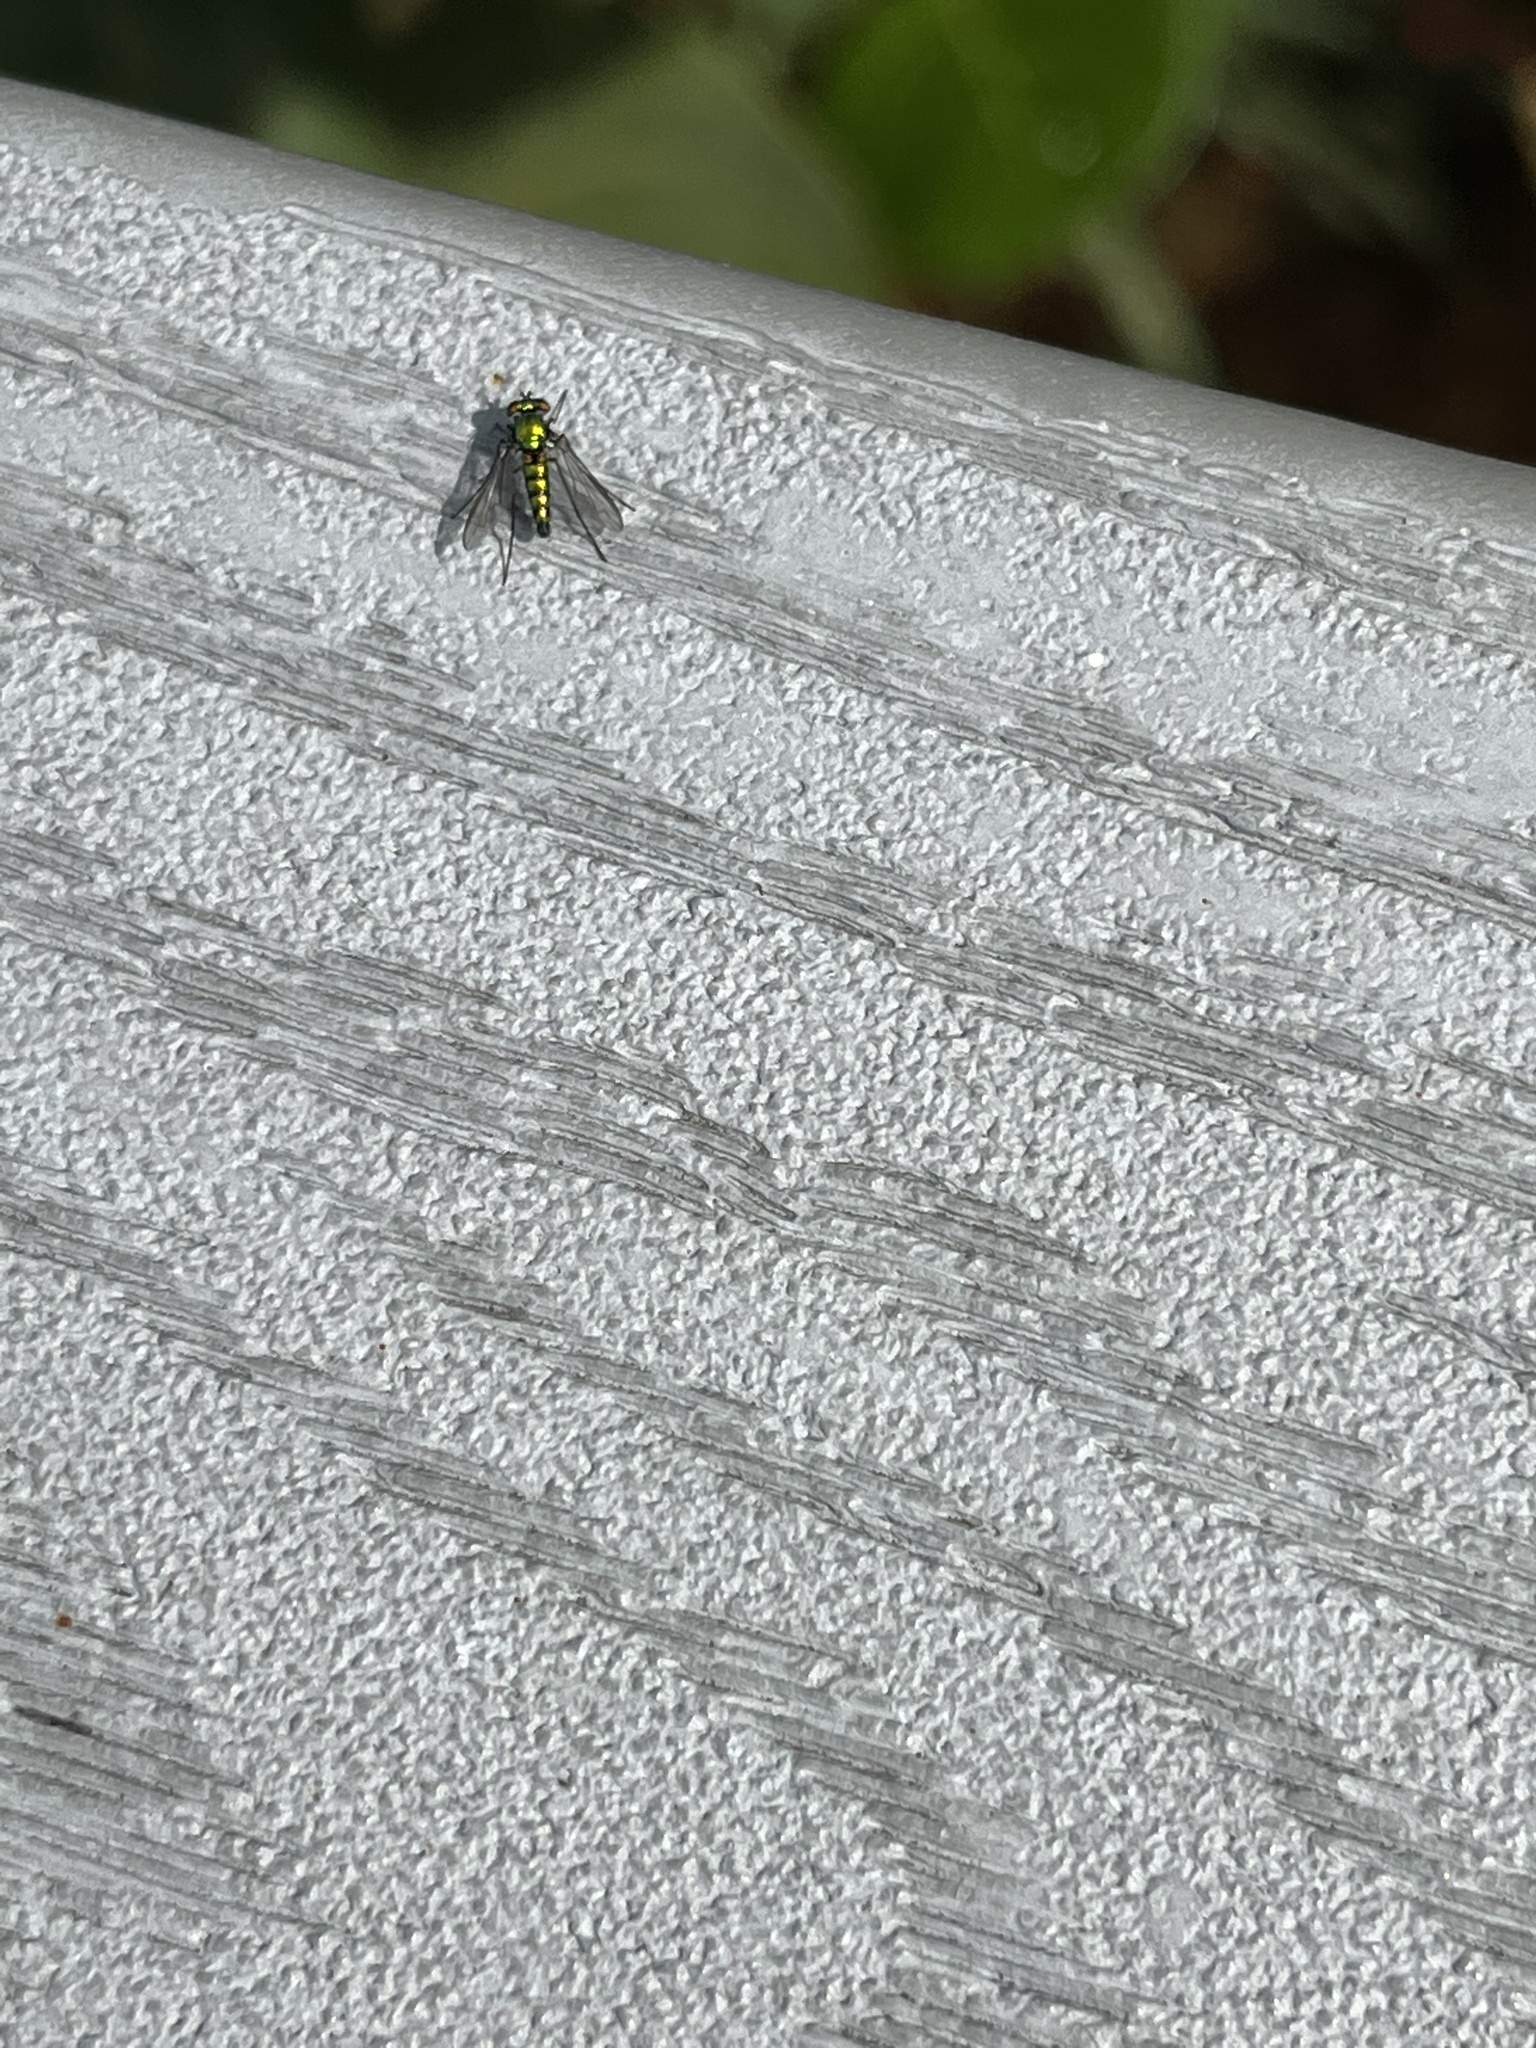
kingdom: Animalia
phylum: Arthropoda
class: Insecta
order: Diptera
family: Dolichopodidae
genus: Condylostylus
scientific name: Condylostylus longicornis
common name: Long-legged fly
